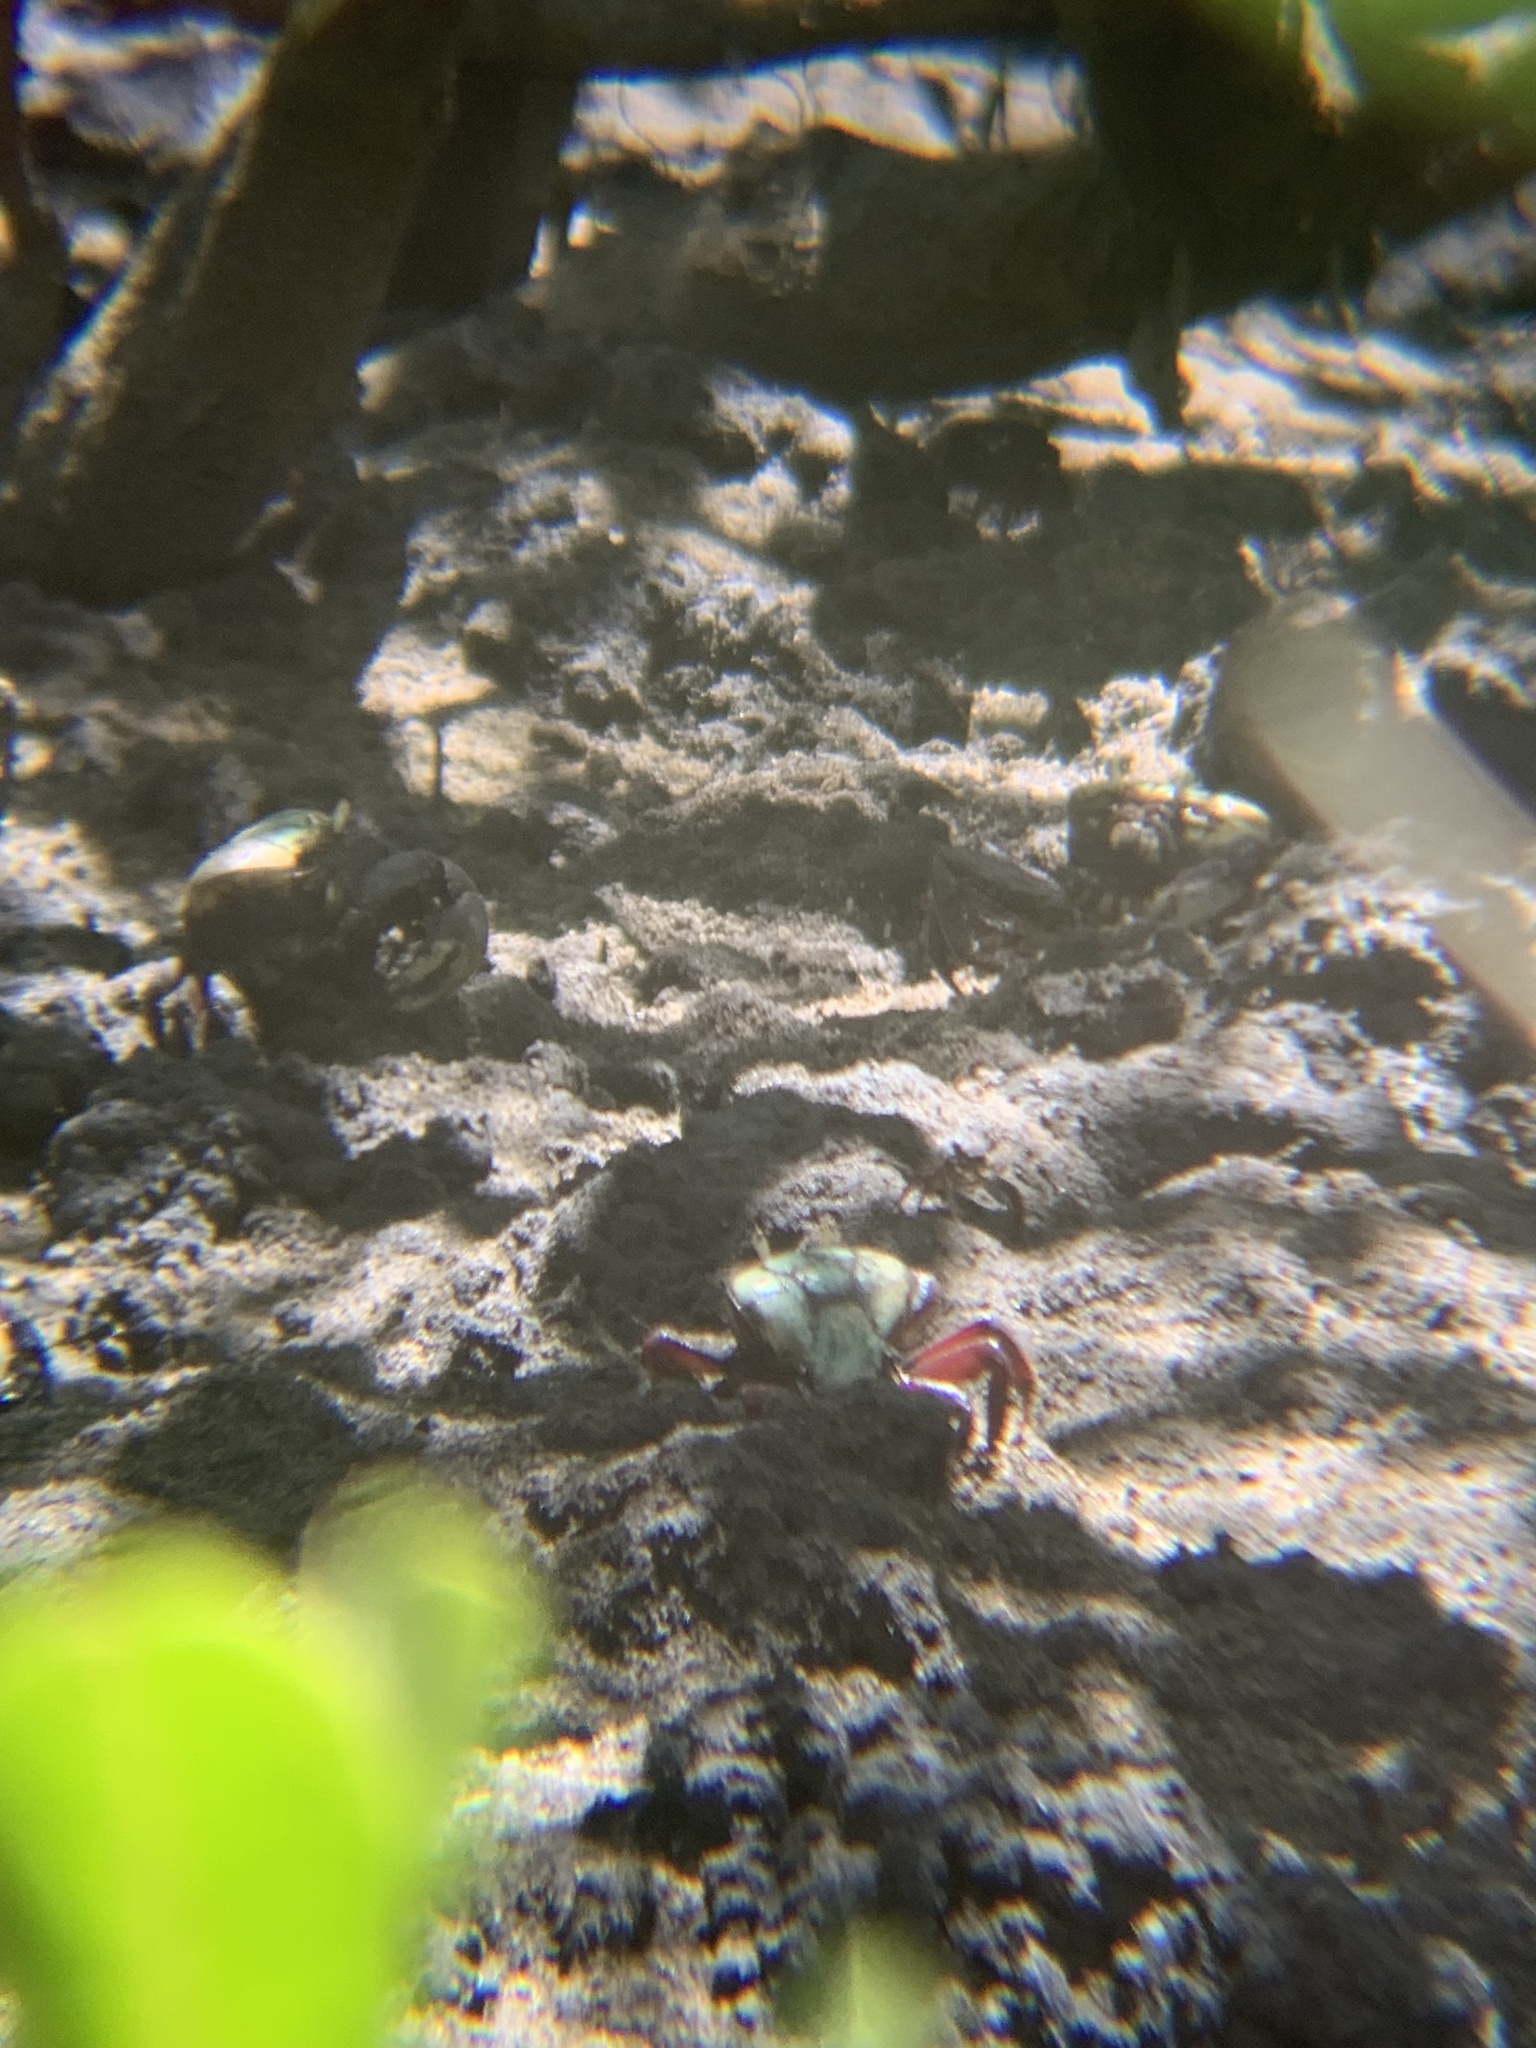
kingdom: Animalia
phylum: Arthropoda
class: Malacostraca
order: Decapoda
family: Ocypodidae
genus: Ucides
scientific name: Ucides cordatus
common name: Swamp ghost crab
